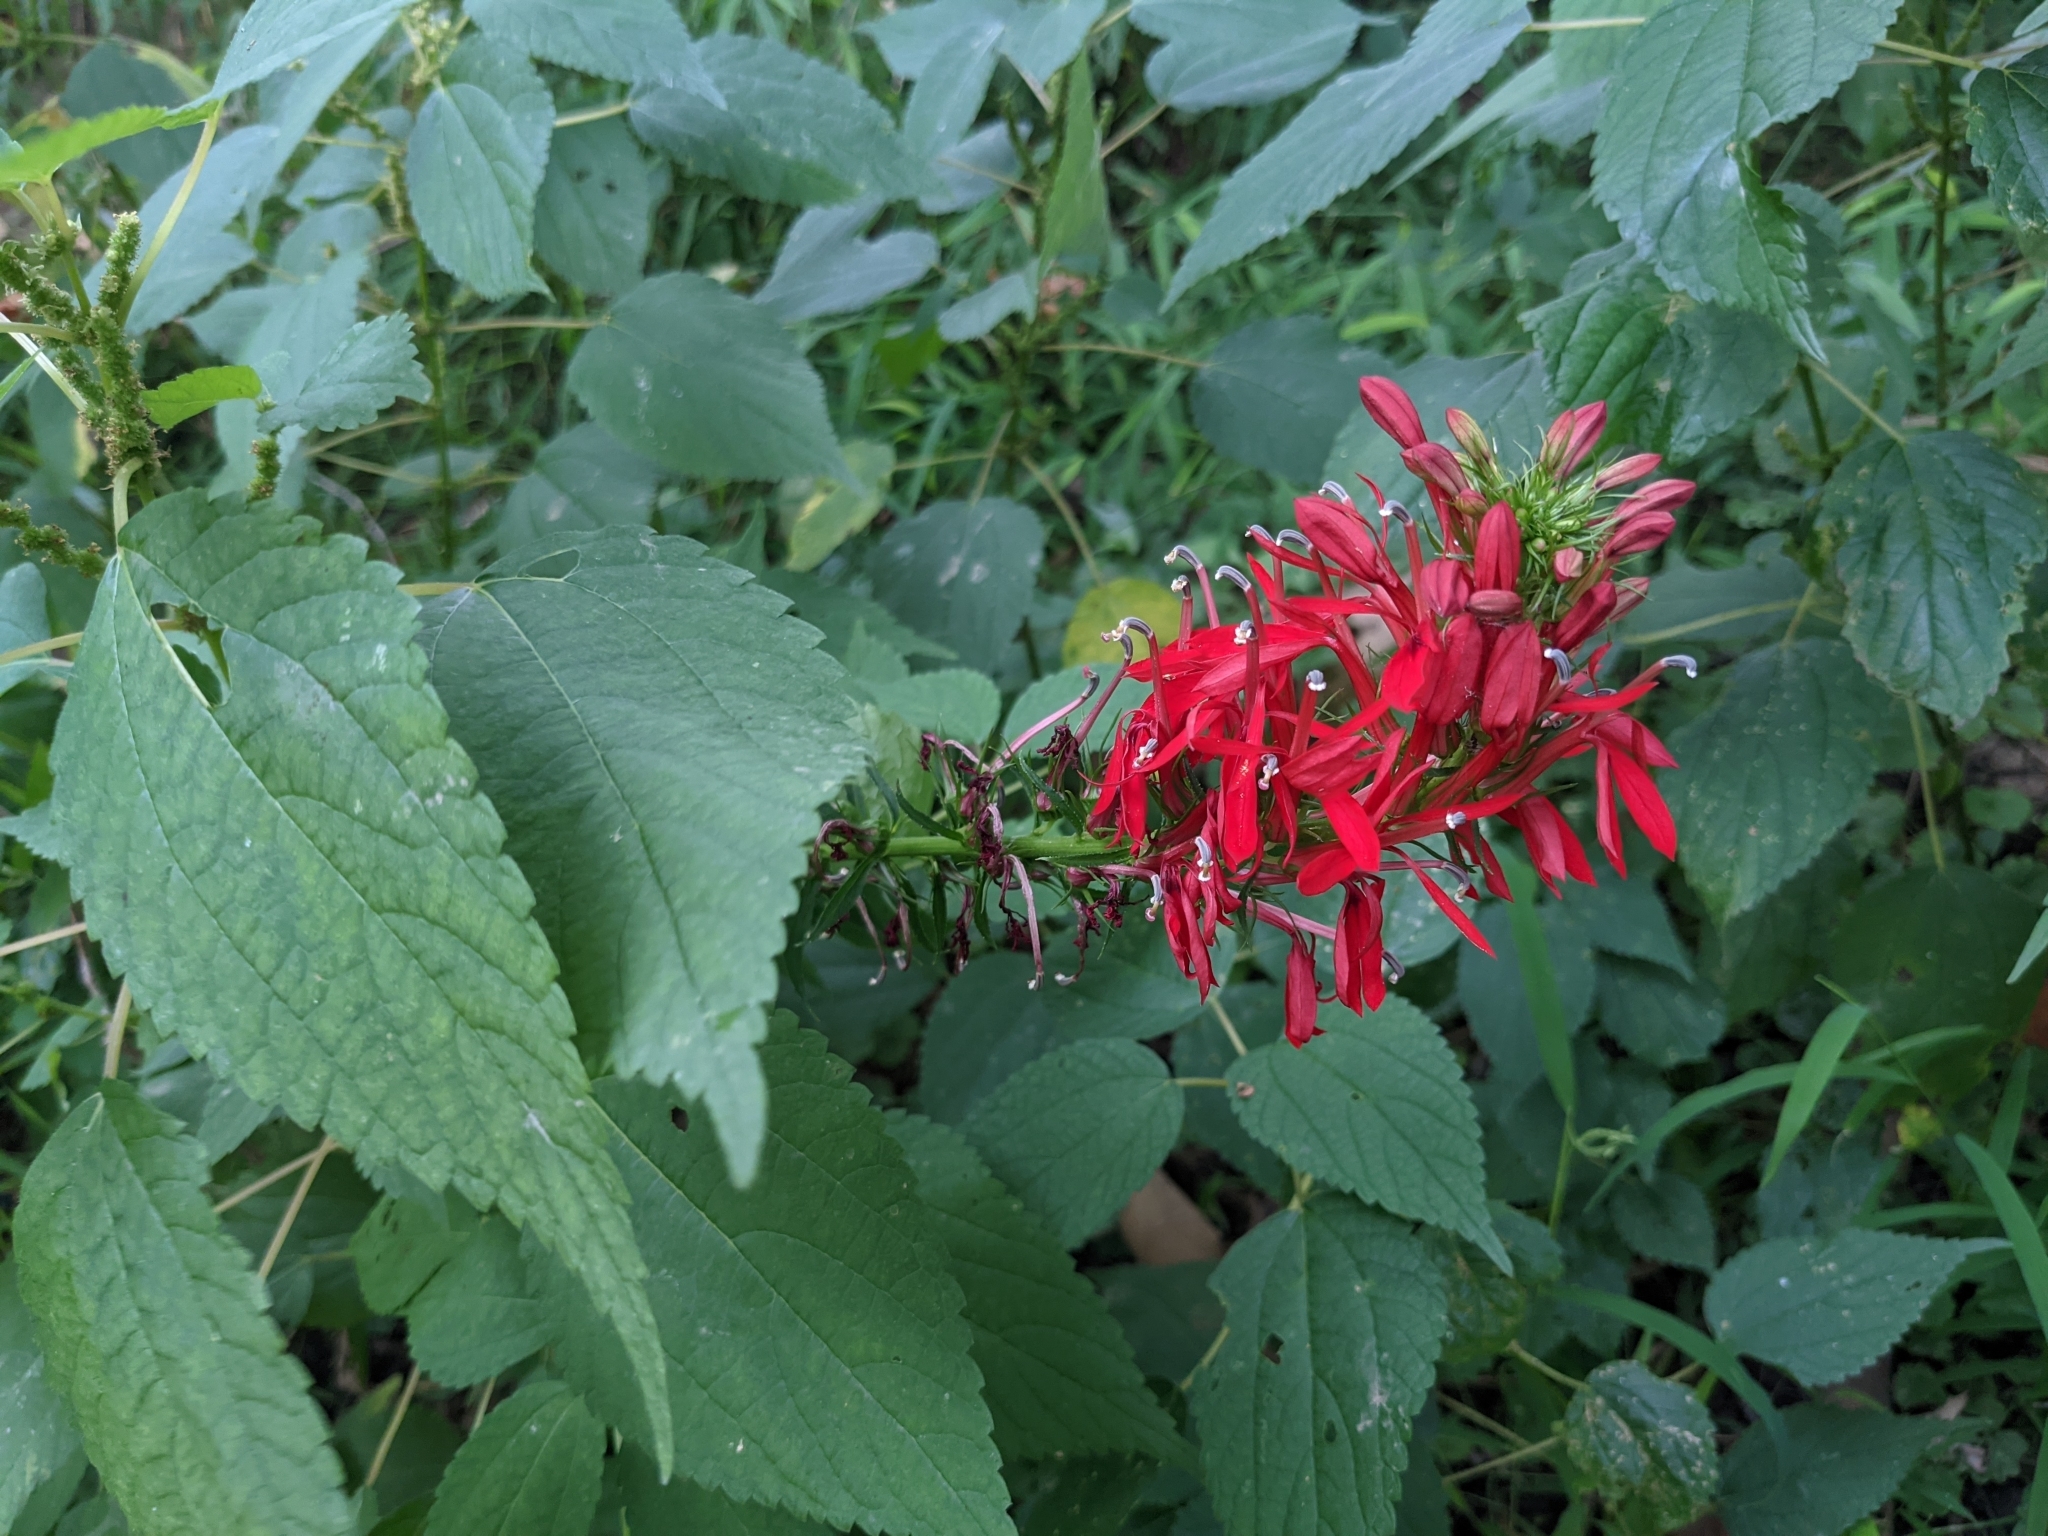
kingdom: Plantae
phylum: Tracheophyta
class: Magnoliopsida
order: Asterales
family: Campanulaceae
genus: Lobelia
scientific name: Lobelia cardinalis
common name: Cardinal flower
